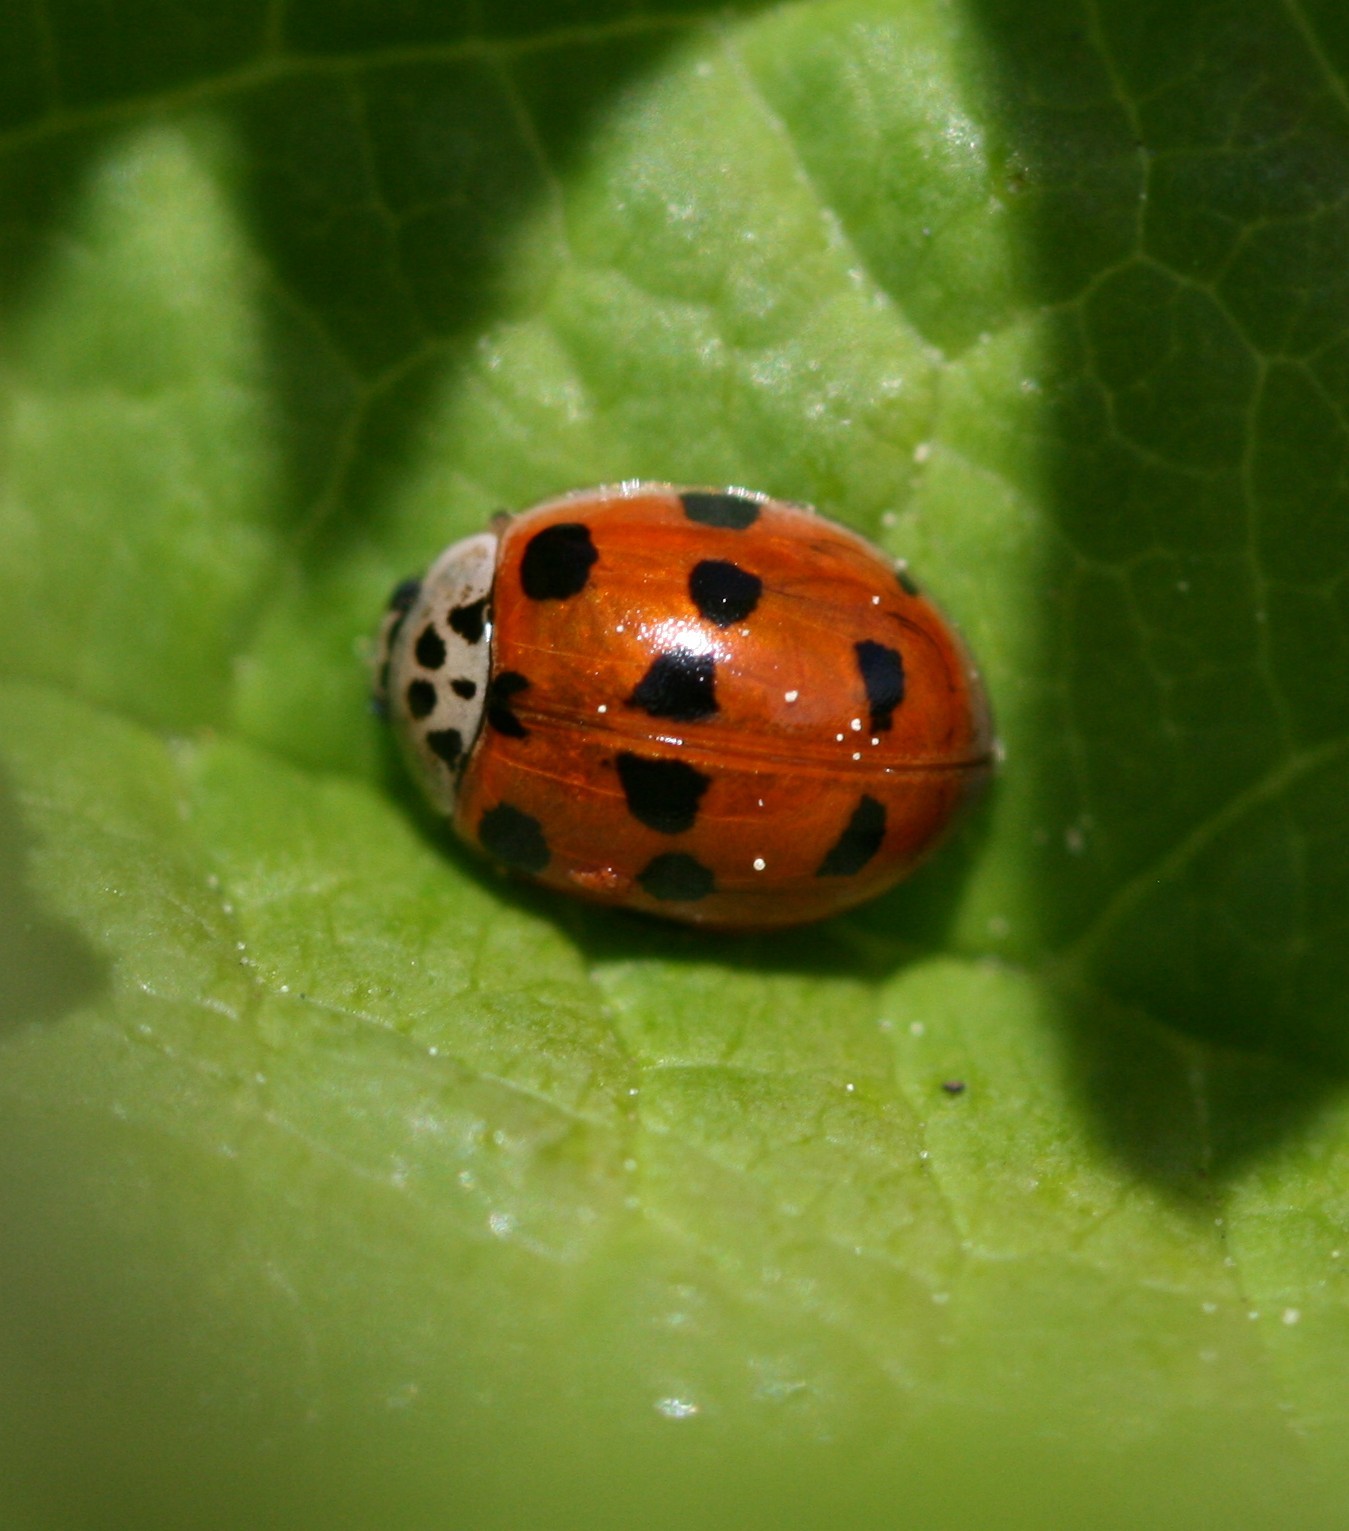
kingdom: Animalia
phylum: Arthropoda
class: Insecta
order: Coleoptera
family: Coccinellidae
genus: Adalia
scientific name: Adalia decempunctata
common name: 10-spot ladybird
